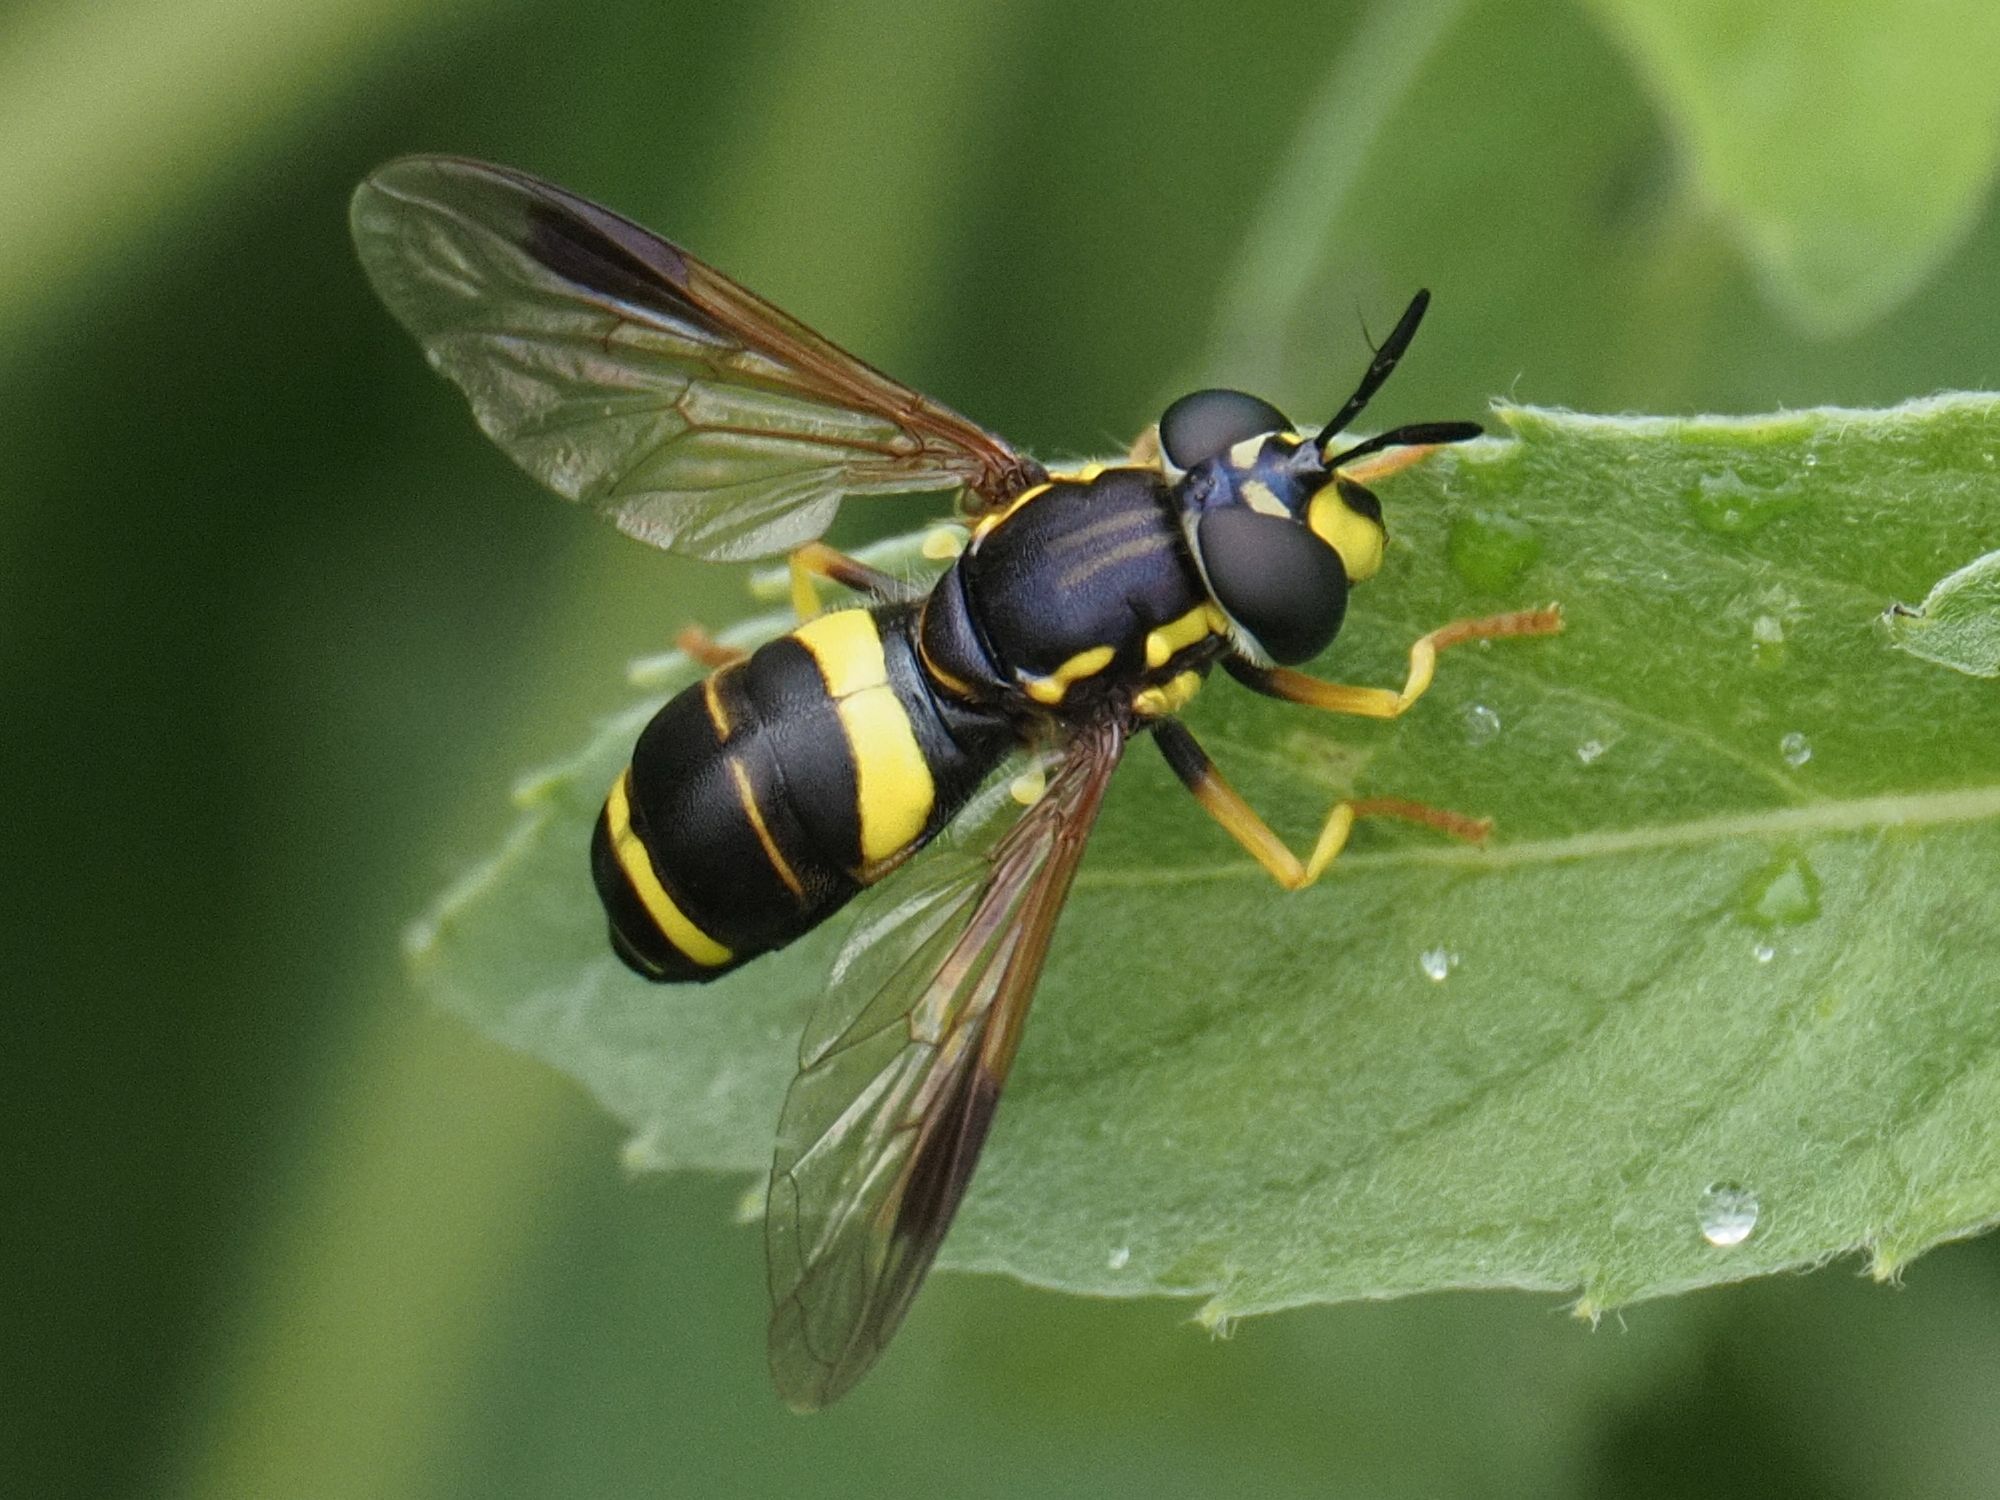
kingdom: Animalia
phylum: Arthropoda
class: Insecta
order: Diptera
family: Syrphidae
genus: Chrysotoxum
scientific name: Chrysotoxum bicincta
